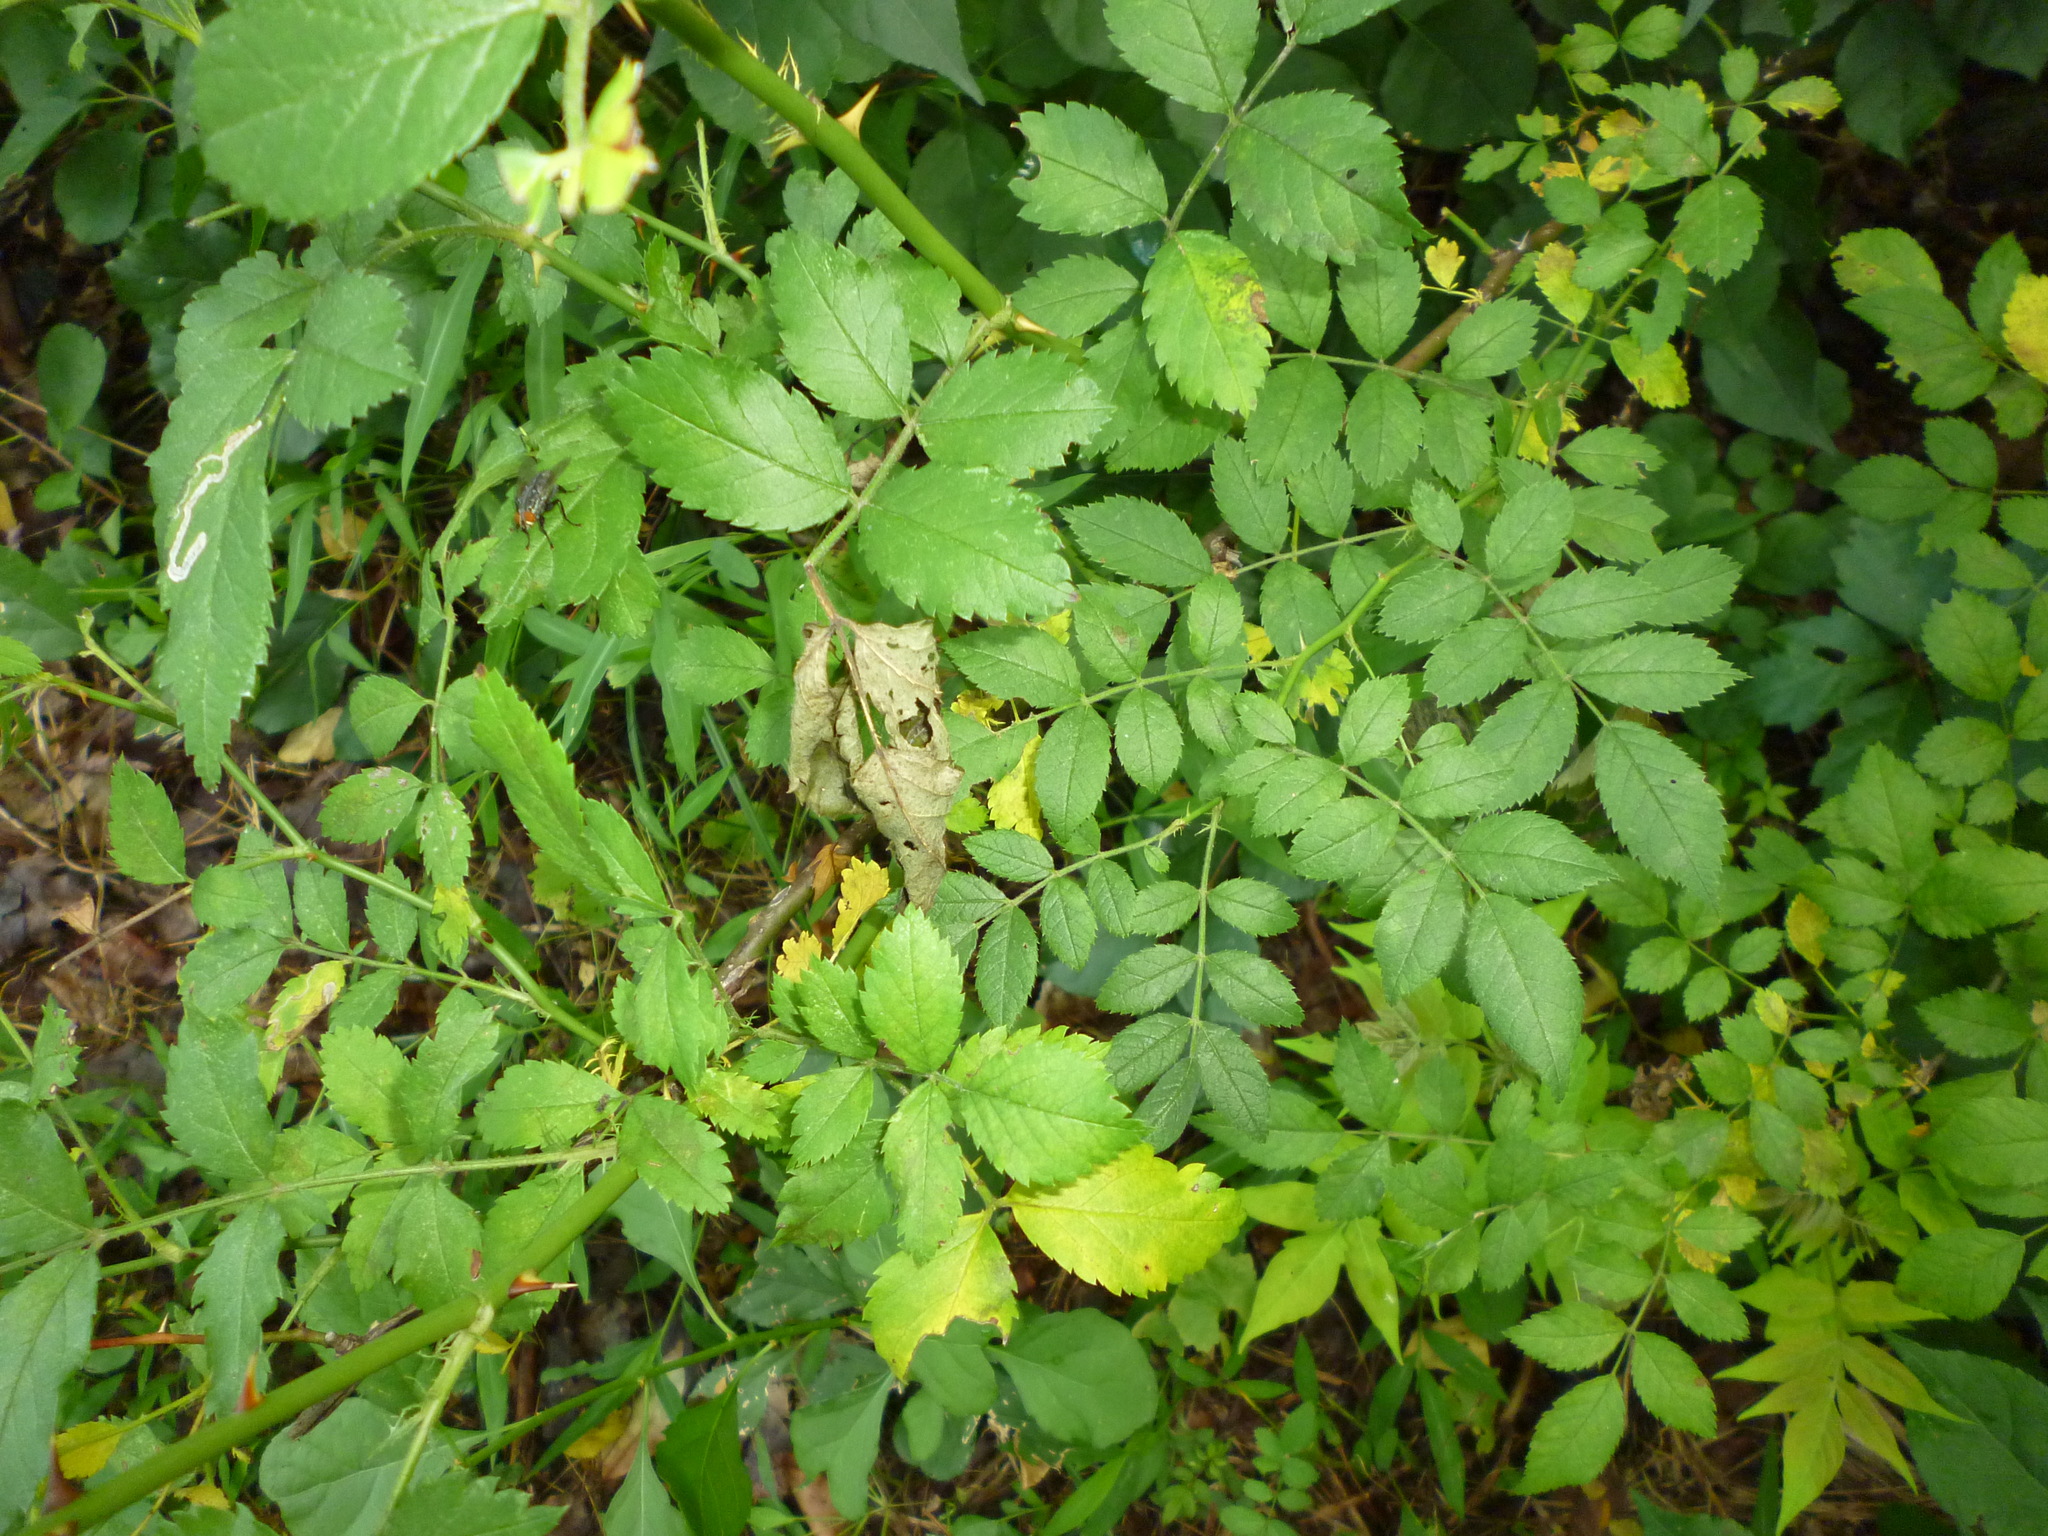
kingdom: Plantae
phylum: Tracheophyta
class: Magnoliopsida
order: Rosales
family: Rosaceae
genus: Rosa
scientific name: Rosa multiflora
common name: Multiflora rose
